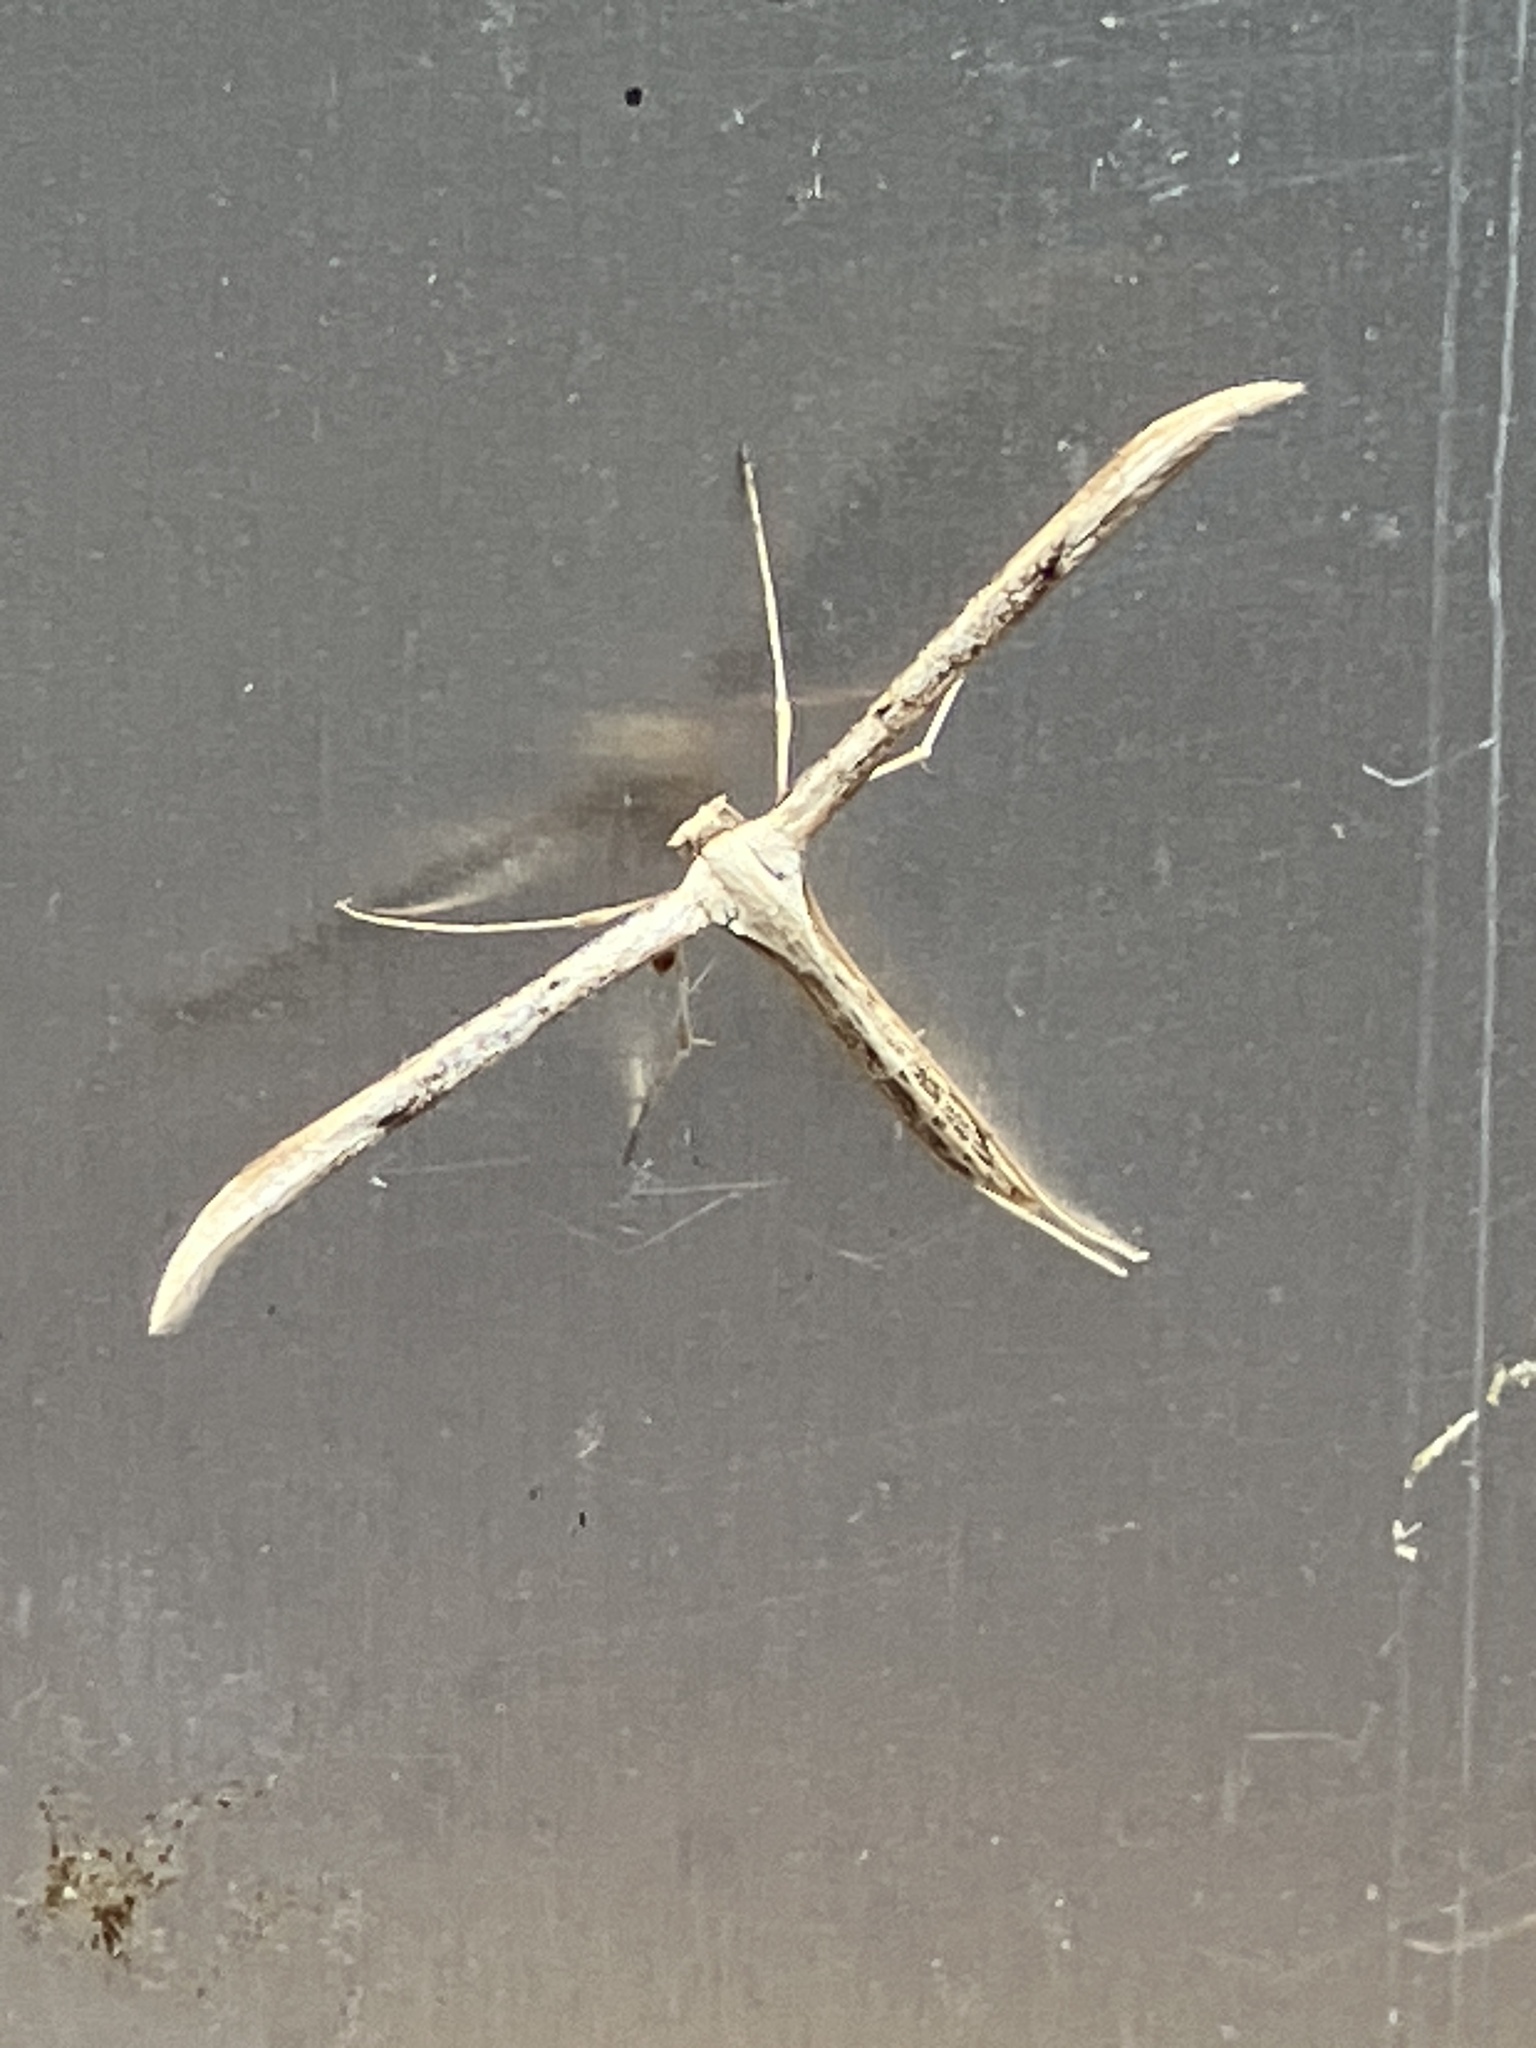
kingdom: Animalia
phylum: Arthropoda
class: Insecta
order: Lepidoptera
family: Pterophoridae
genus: Emmelina
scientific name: Emmelina monodactyla
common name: Common plume
